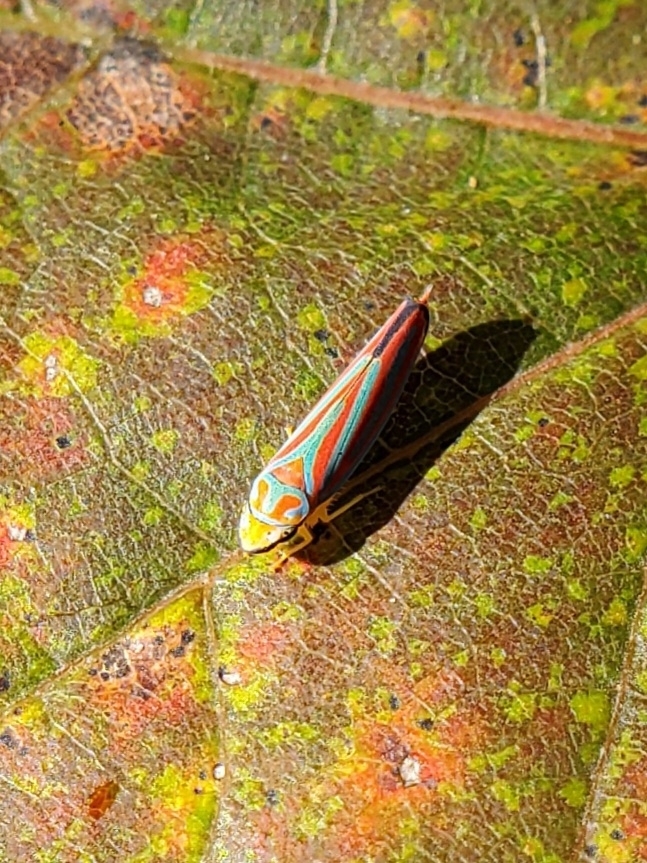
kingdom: Animalia
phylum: Arthropoda
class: Insecta
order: Hemiptera
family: Cicadellidae
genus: Graphocephala
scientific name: Graphocephala coccinea
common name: Candy-striped leafhopper
